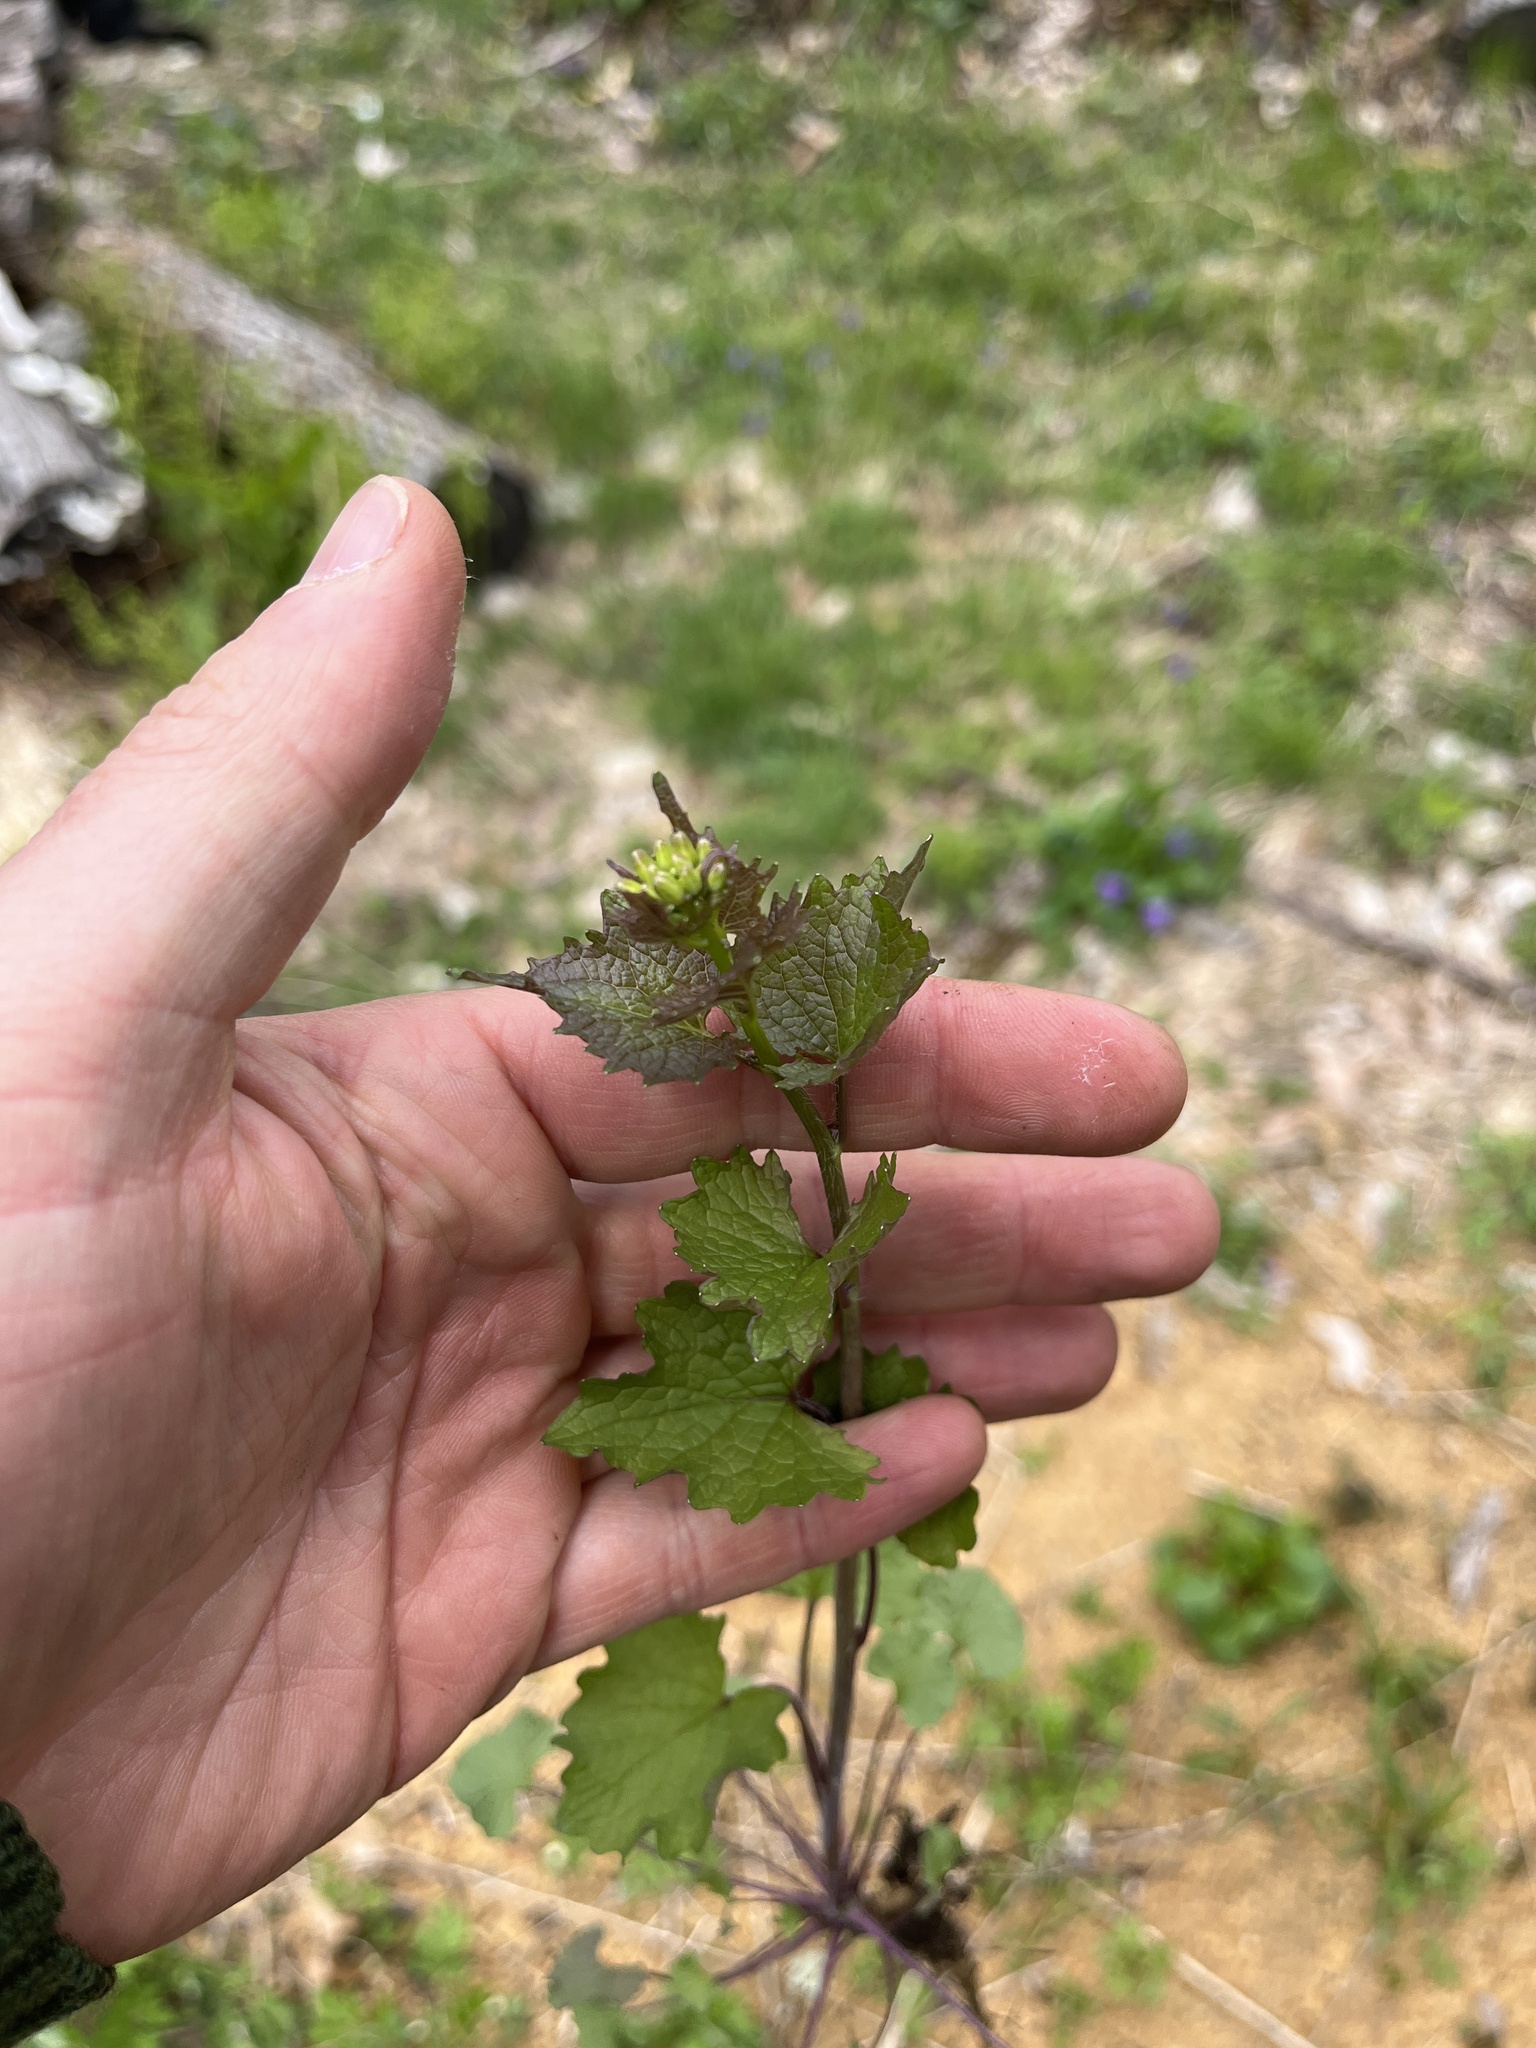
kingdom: Plantae
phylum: Tracheophyta
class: Magnoliopsida
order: Brassicales
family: Brassicaceae
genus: Alliaria
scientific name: Alliaria petiolata
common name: Garlic mustard
